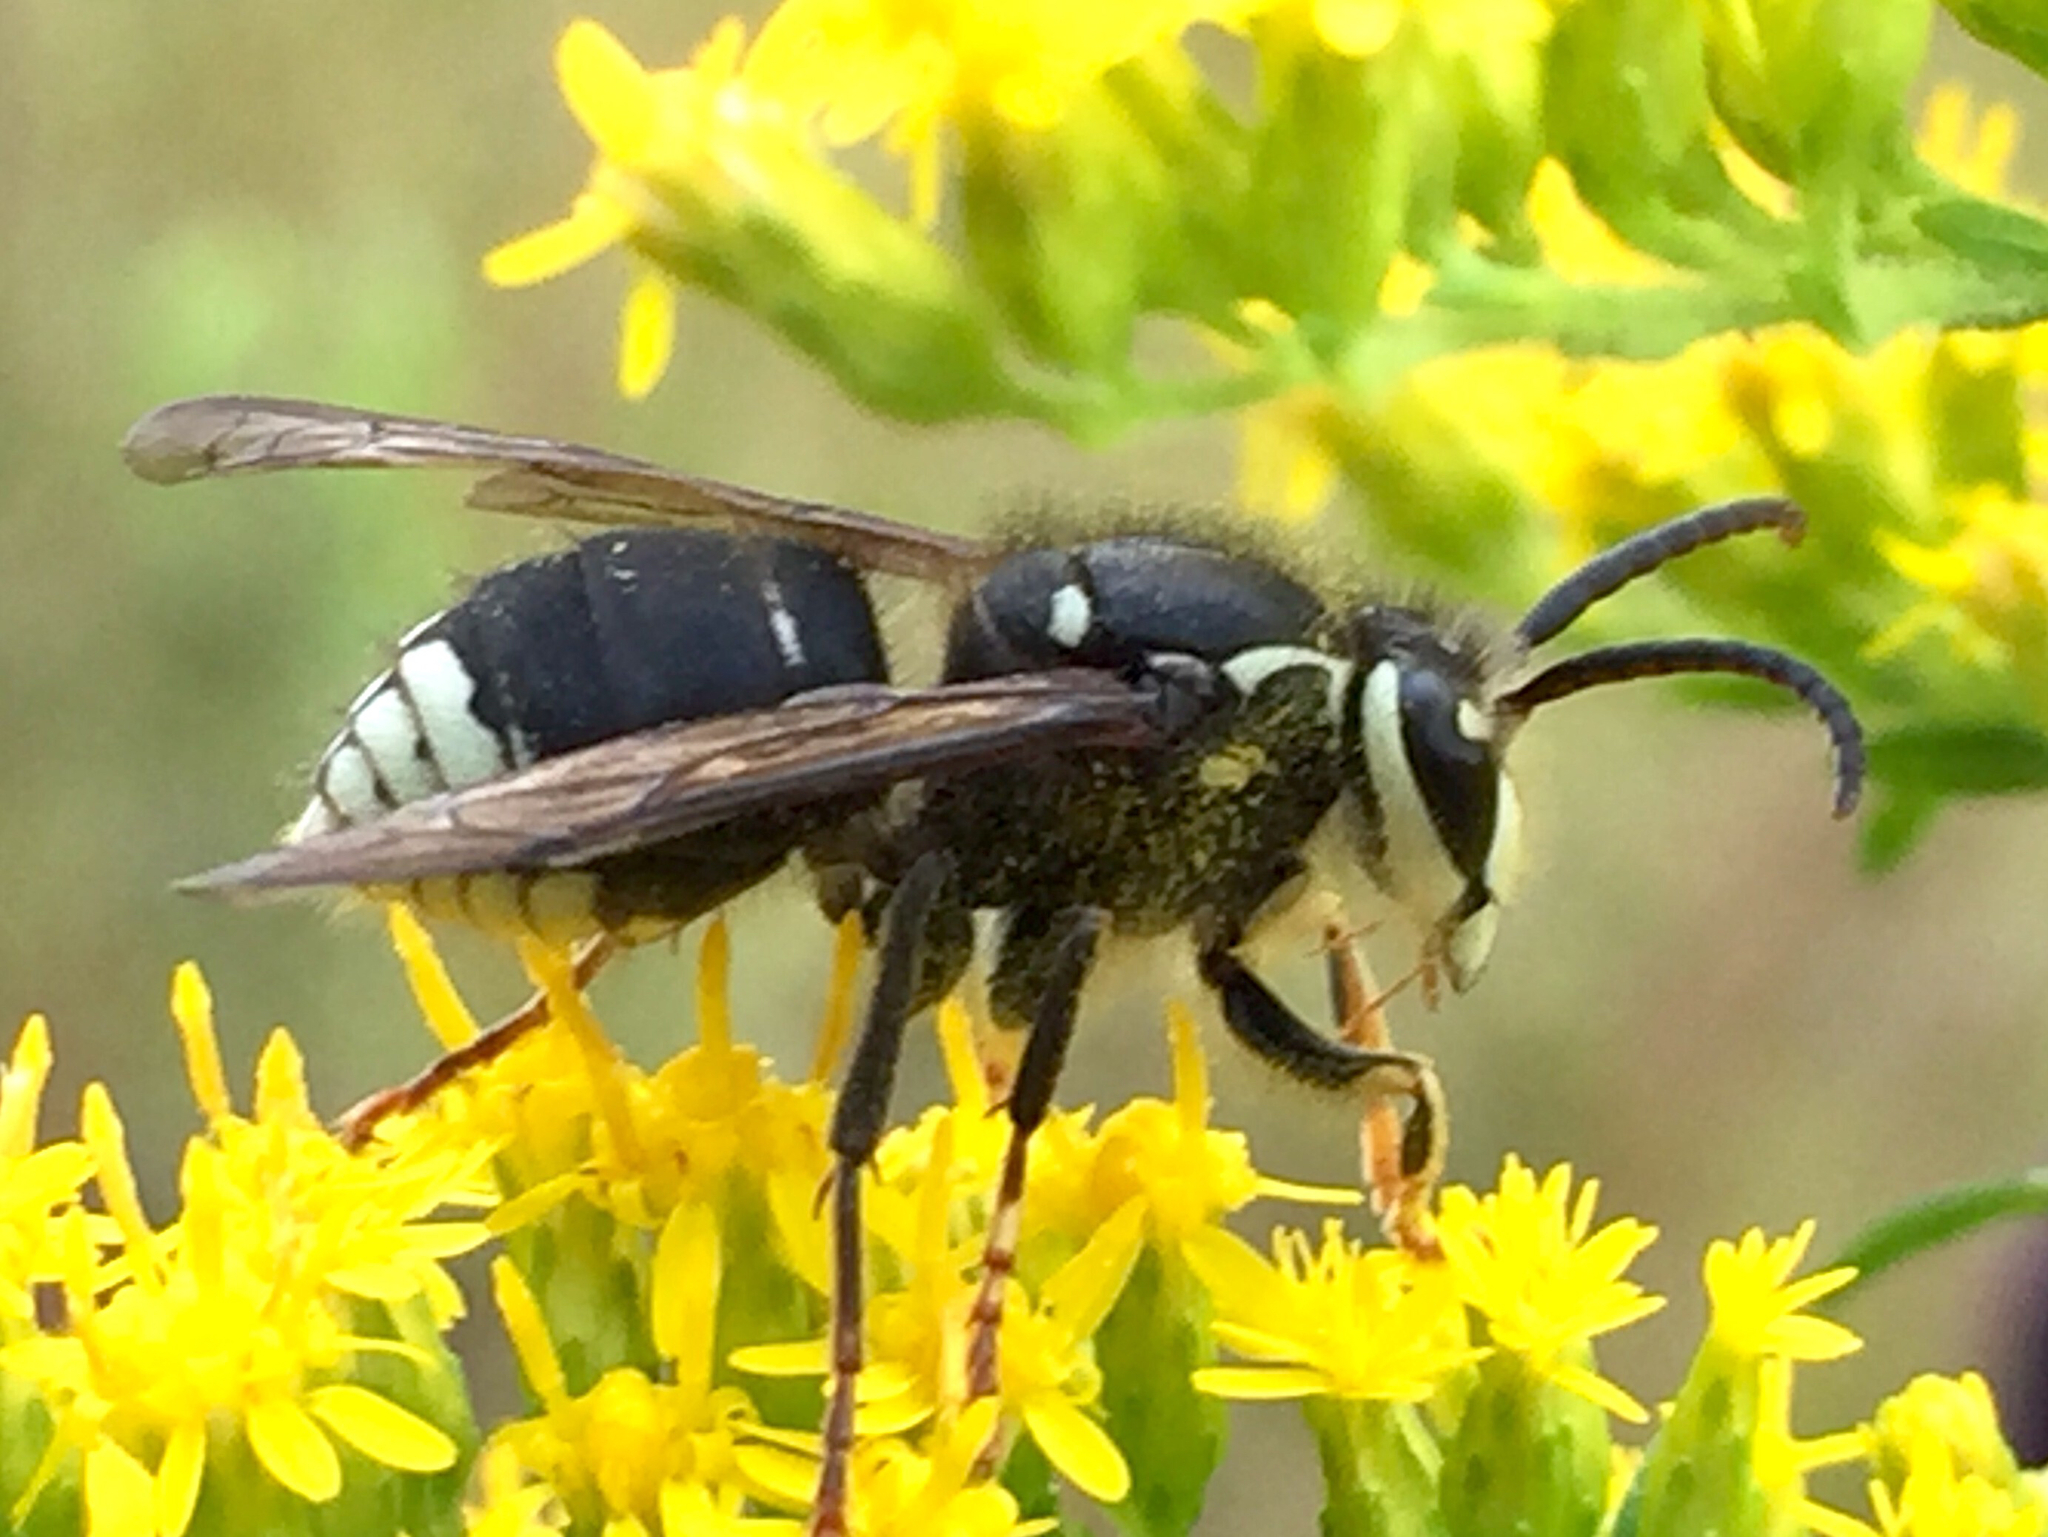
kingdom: Animalia
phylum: Arthropoda
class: Insecta
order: Hymenoptera
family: Vespidae
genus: Dolichovespula
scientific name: Dolichovespula maculata
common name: Bald-faced hornet
